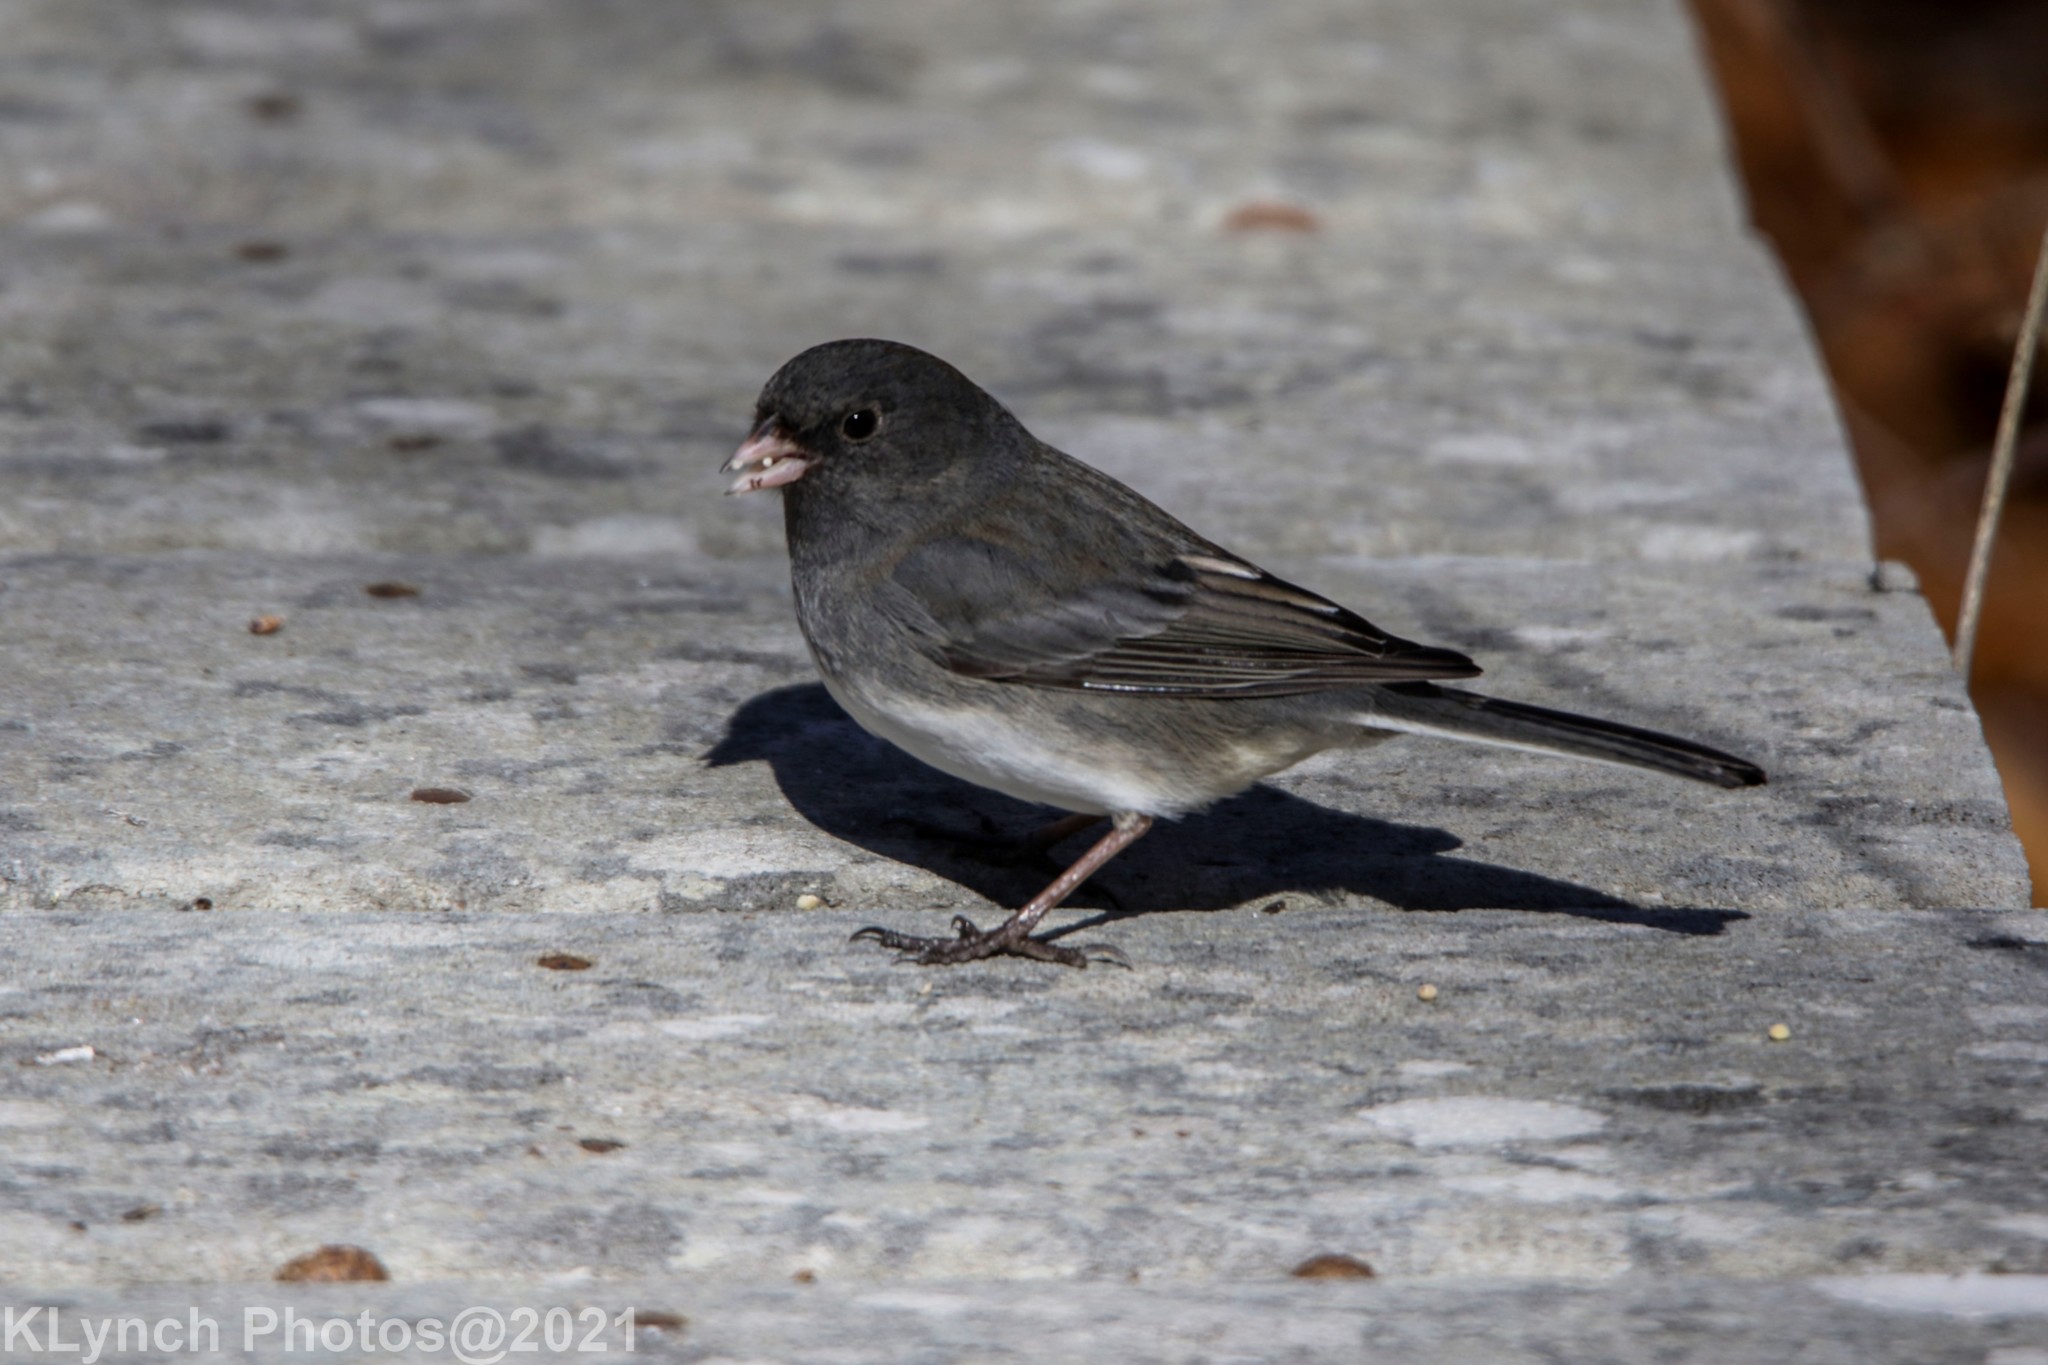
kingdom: Animalia
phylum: Chordata
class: Aves
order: Passeriformes
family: Passerellidae
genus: Junco
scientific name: Junco hyemalis
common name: Dark-eyed junco
